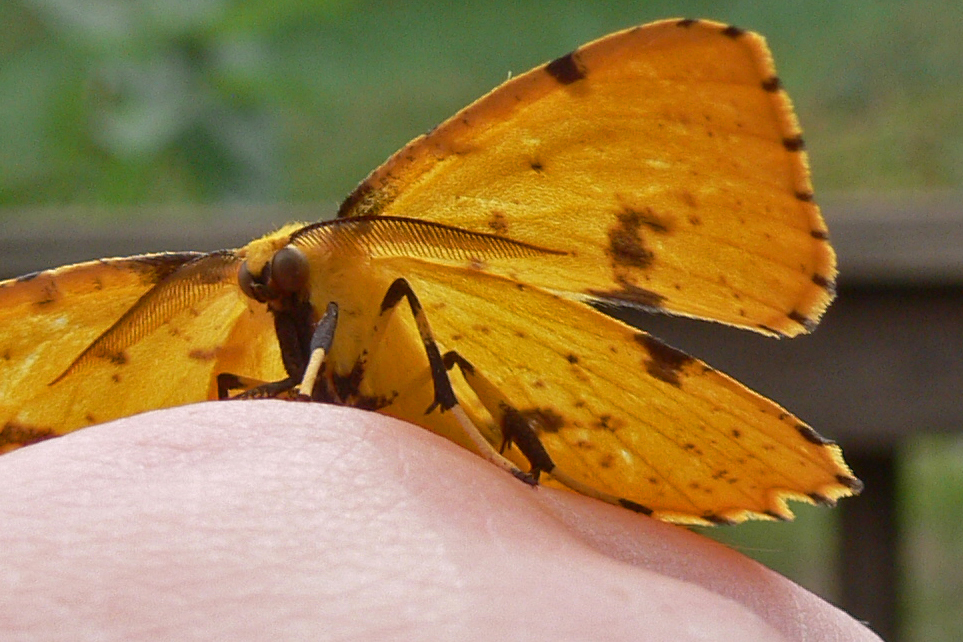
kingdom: Animalia
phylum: Arthropoda
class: Insecta
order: Lepidoptera
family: Geometridae
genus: Xanthotype
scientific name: Xanthotype
